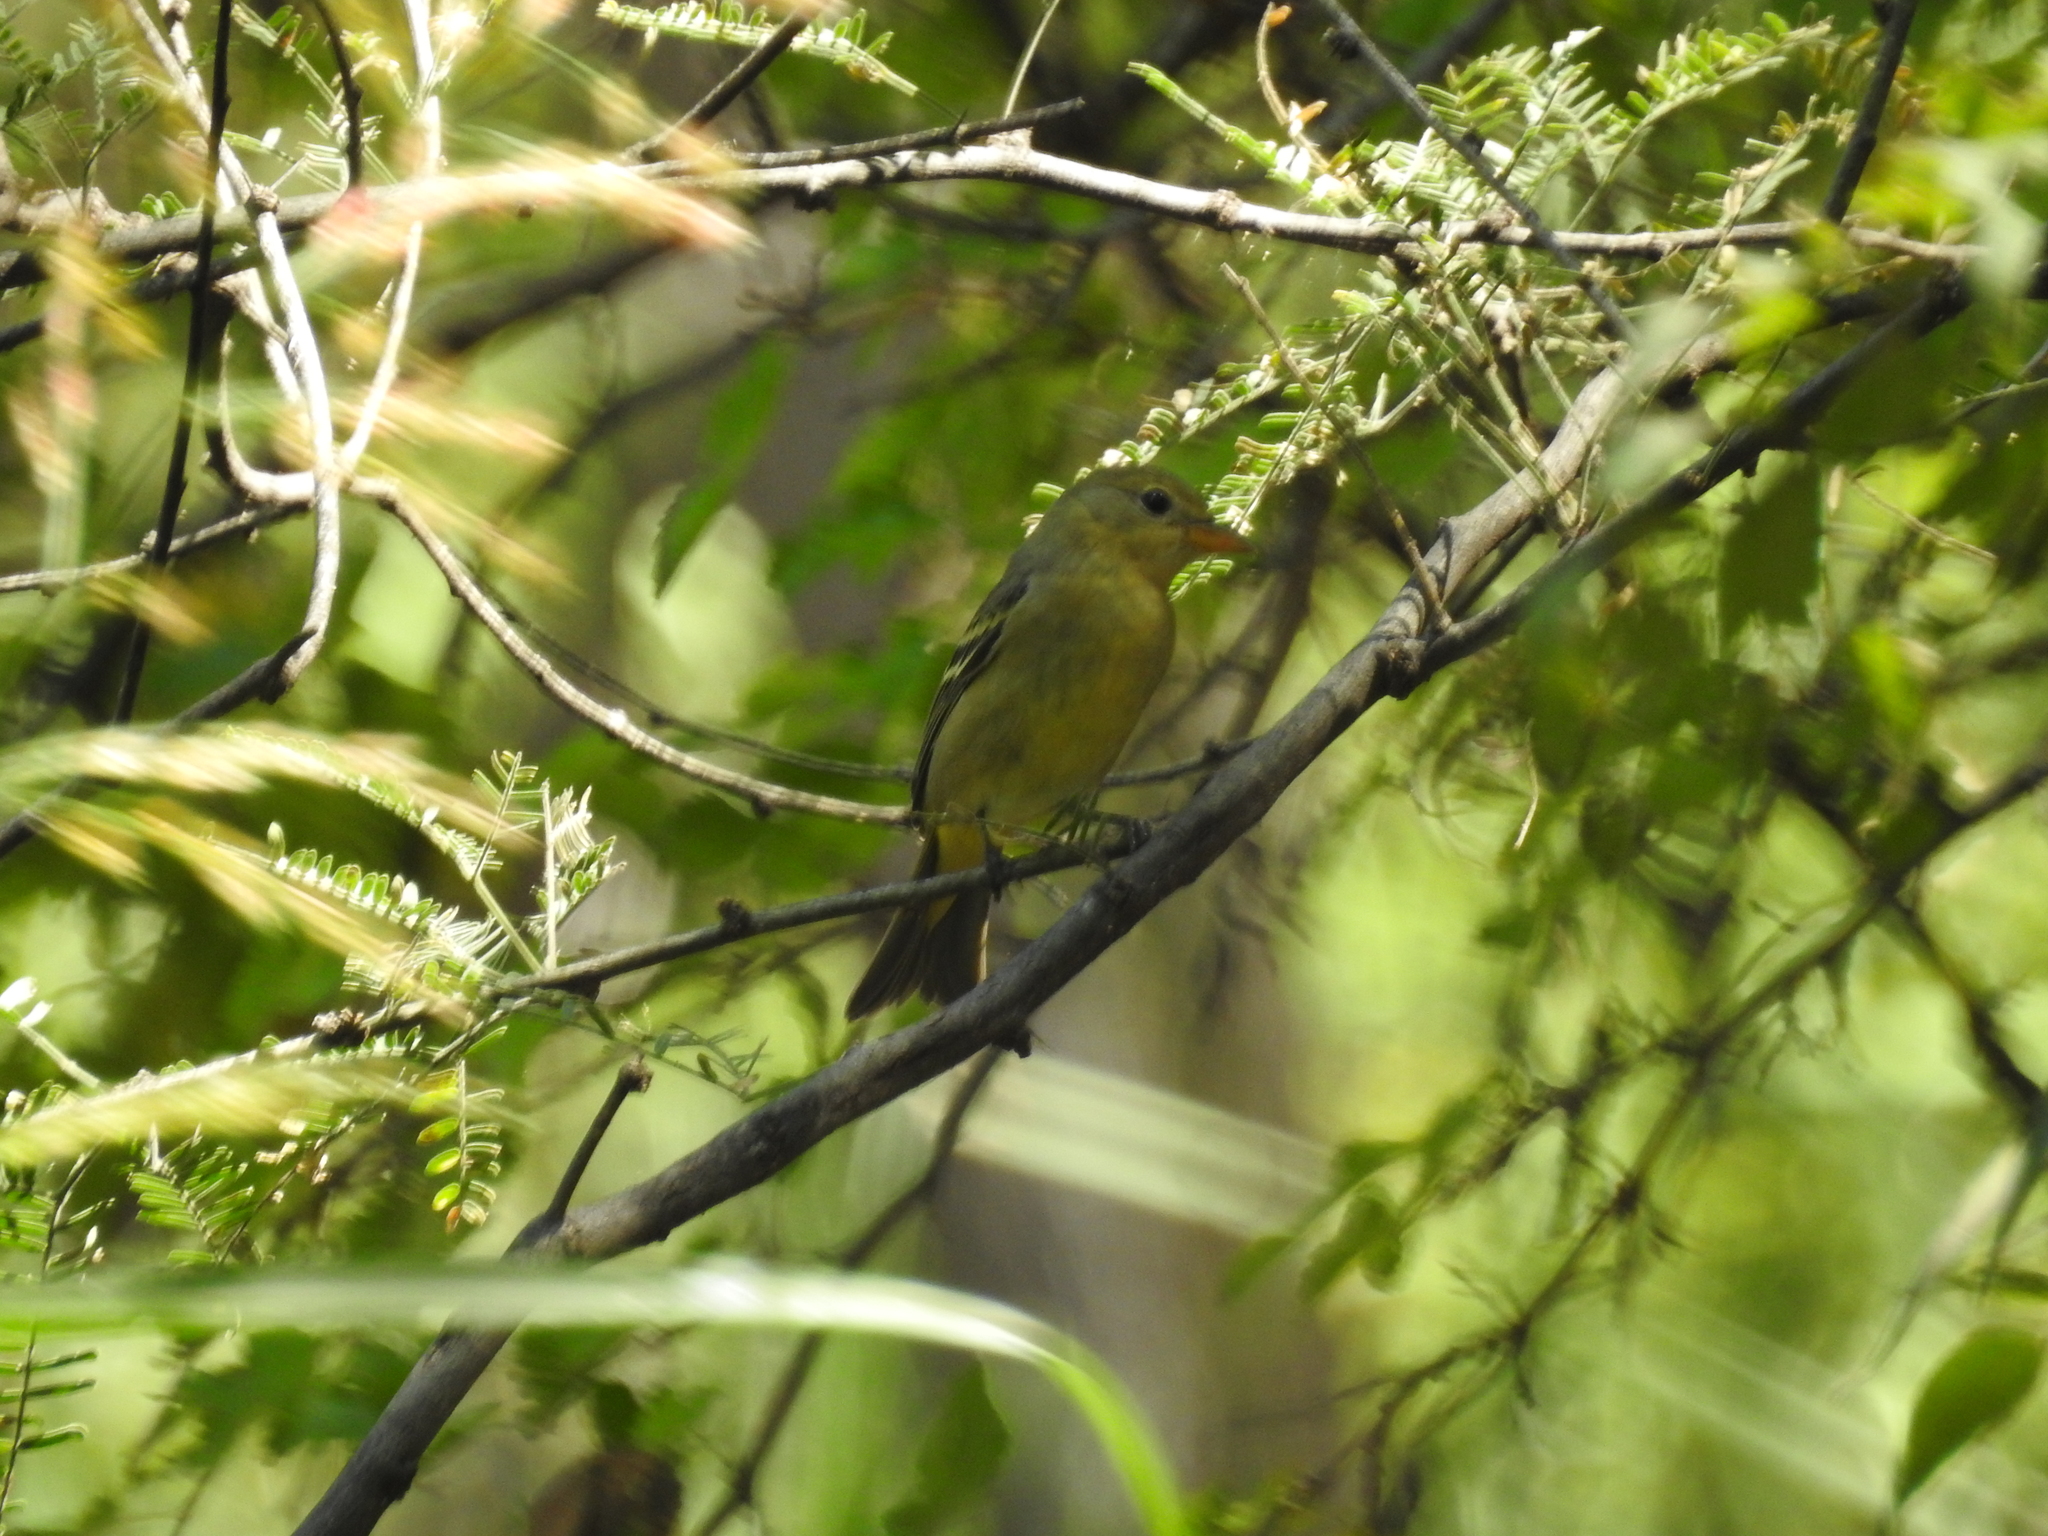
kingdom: Animalia
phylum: Chordata
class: Aves
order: Passeriformes
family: Cardinalidae
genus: Piranga
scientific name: Piranga ludoviciana
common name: Western tanager
